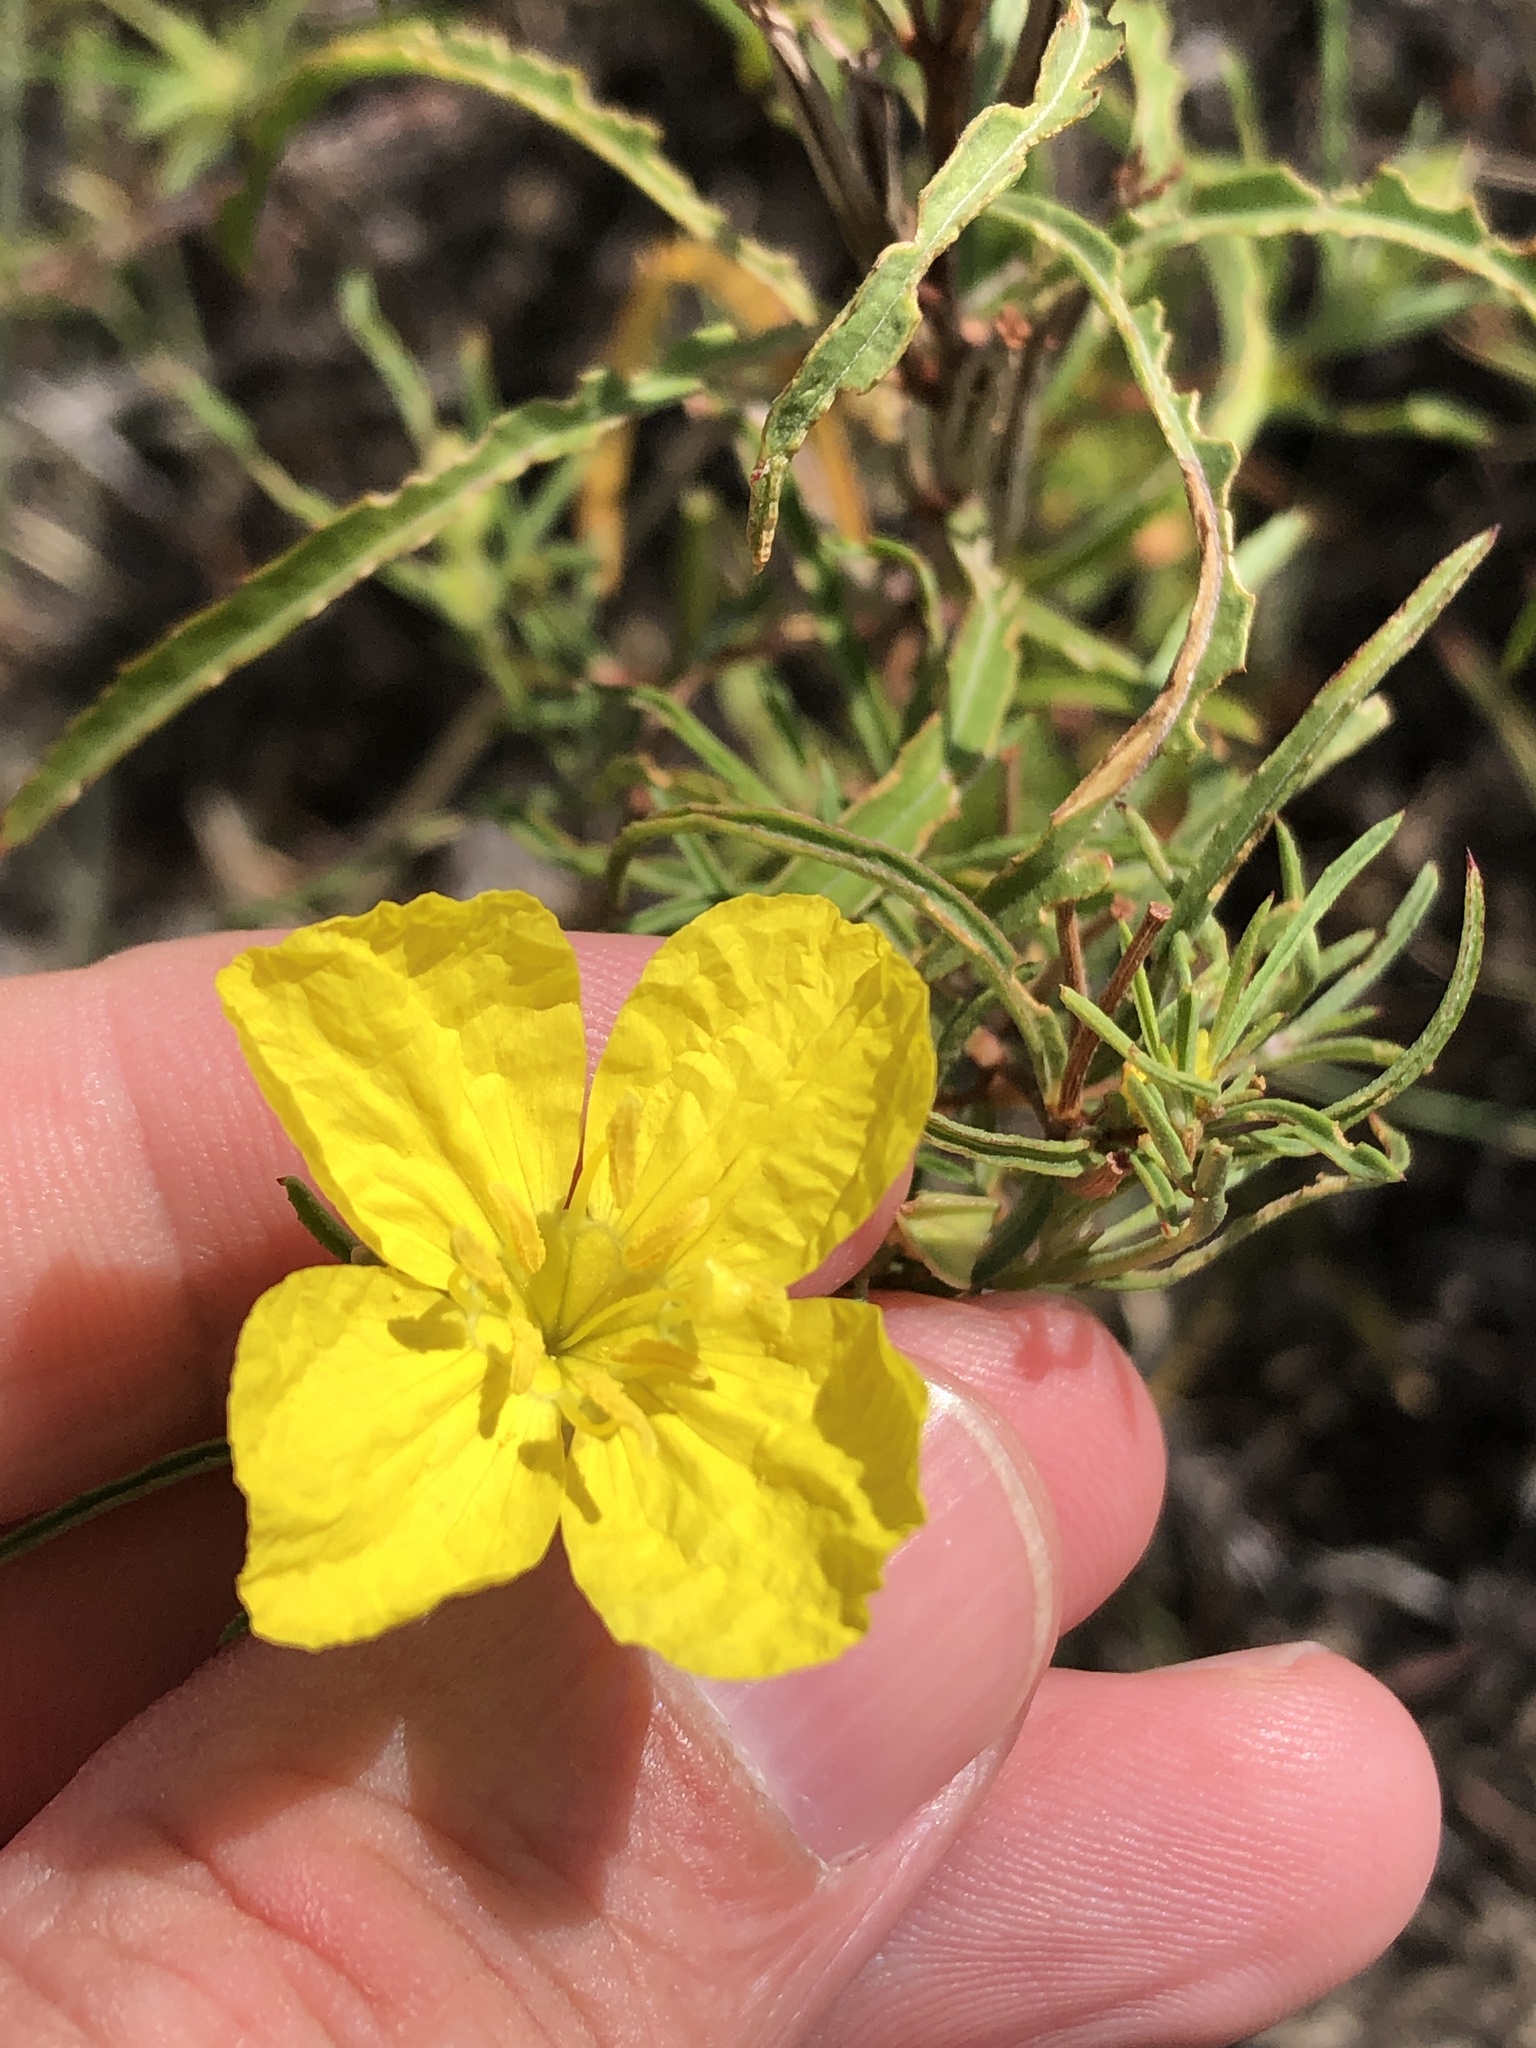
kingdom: Plantae
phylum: Tracheophyta
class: Magnoliopsida
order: Myrtales
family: Onagraceae
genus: Oenothera
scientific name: Oenothera
